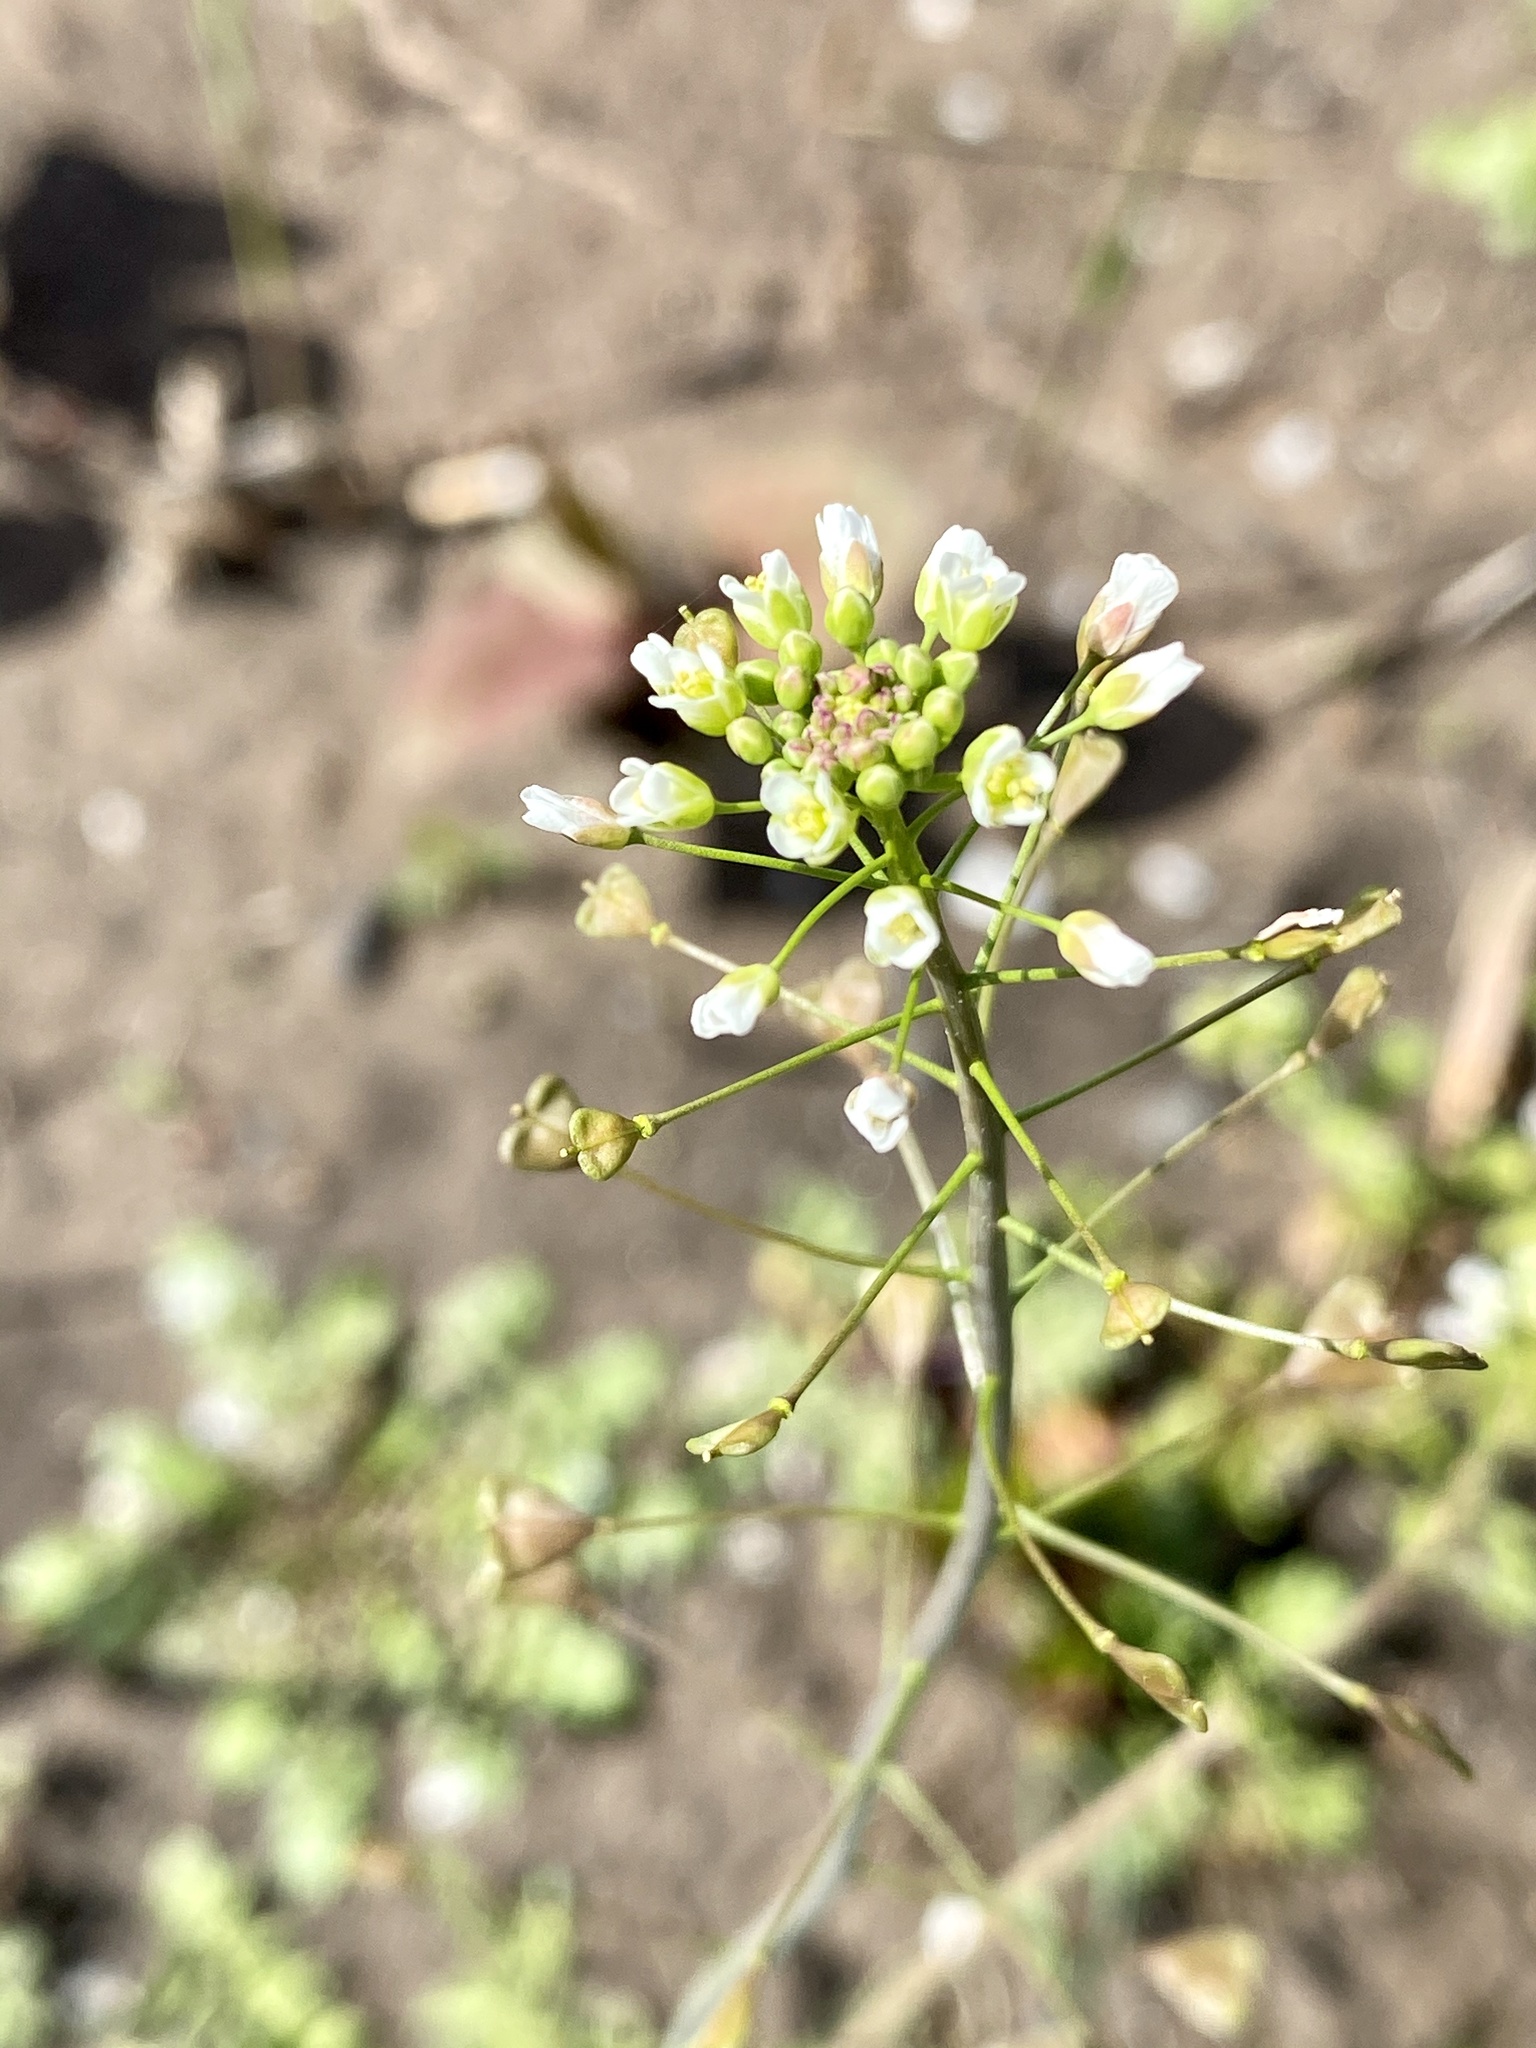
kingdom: Plantae
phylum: Tracheophyta
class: Magnoliopsida
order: Brassicales
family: Brassicaceae
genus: Capsella
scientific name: Capsella bursa-pastoris
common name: Shepherd's purse
